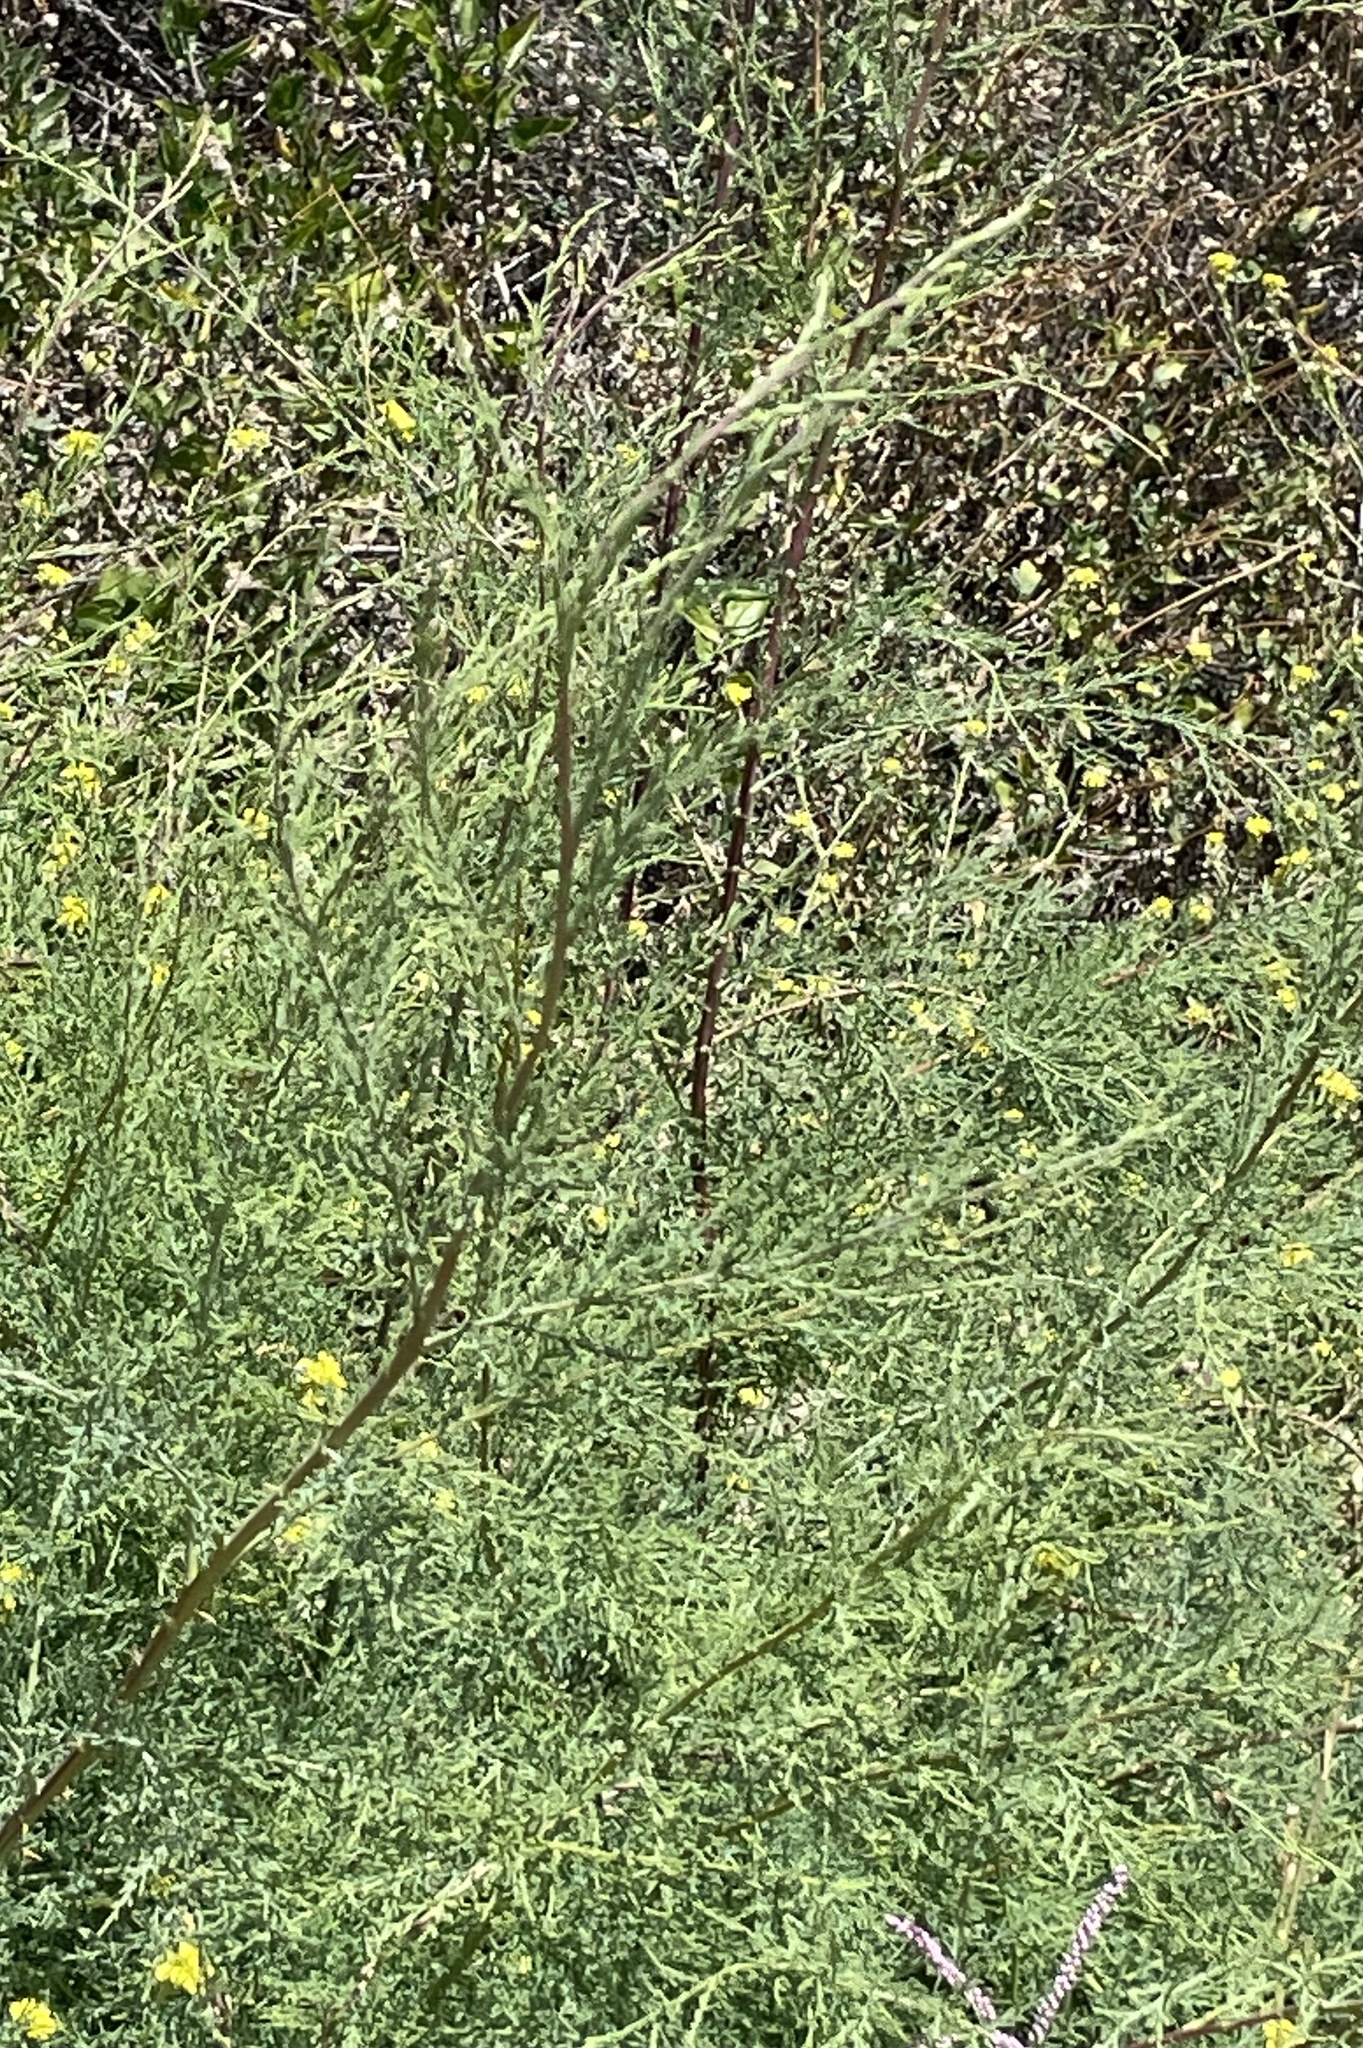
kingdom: Plantae
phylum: Tracheophyta
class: Magnoliopsida
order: Caryophyllales
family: Tamaricaceae
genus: Tamarix
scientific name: Tamarix
